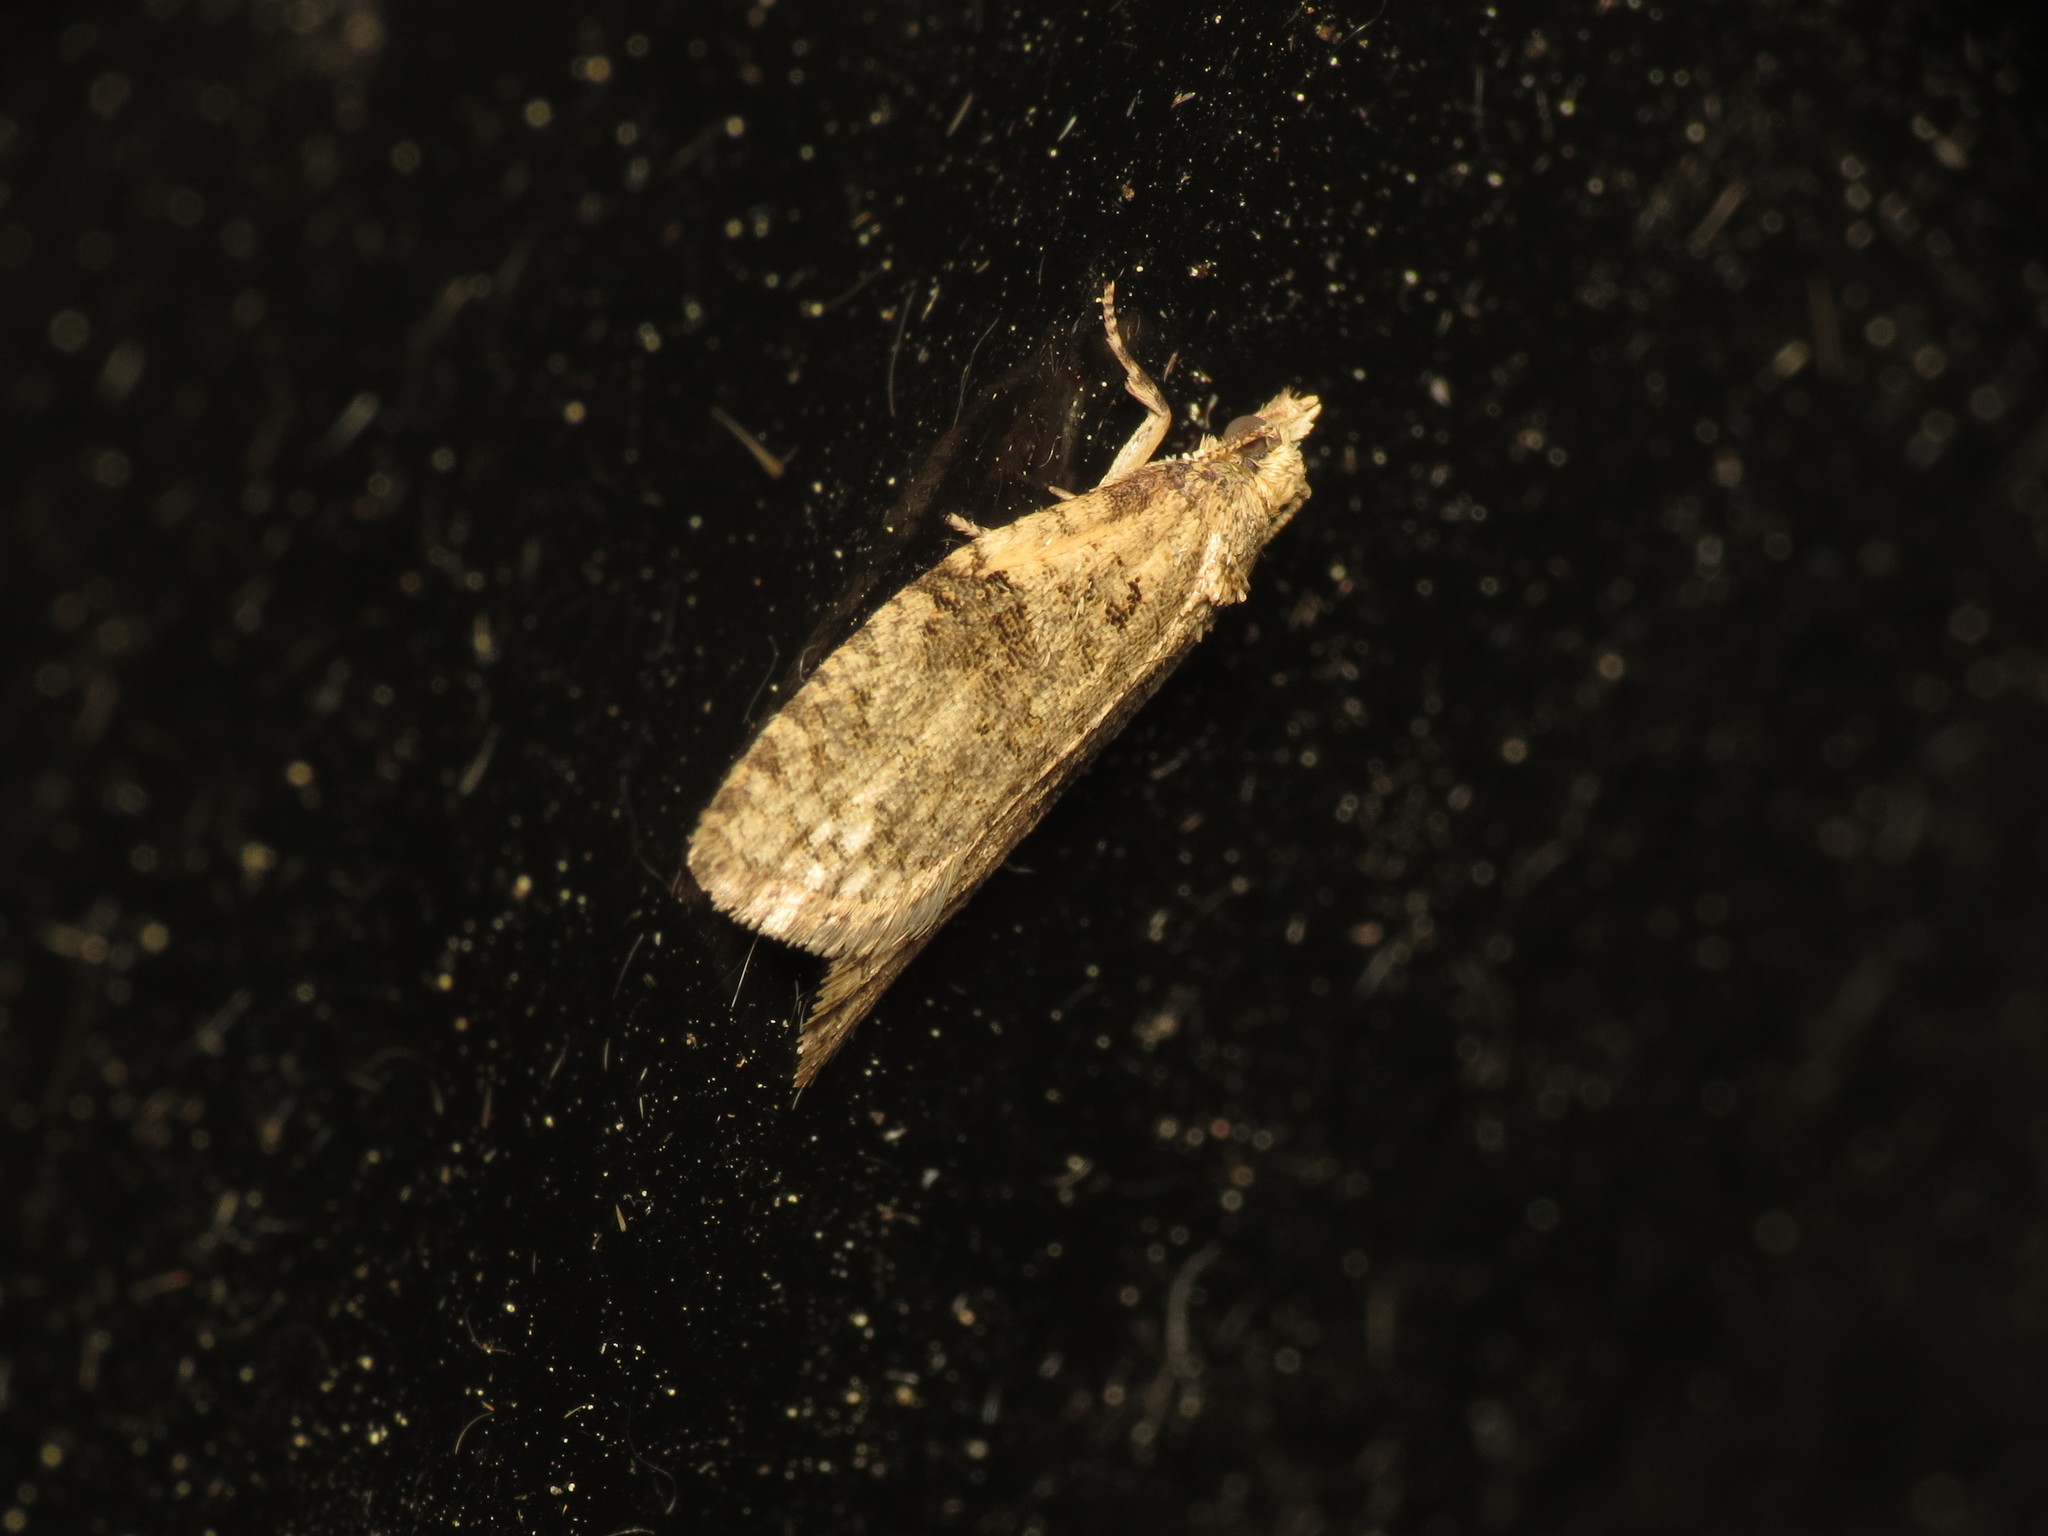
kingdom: Animalia
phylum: Arthropoda
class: Insecta
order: Lepidoptera
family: Tortricidae
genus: Capua
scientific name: Capua vulgana
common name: Common twist
